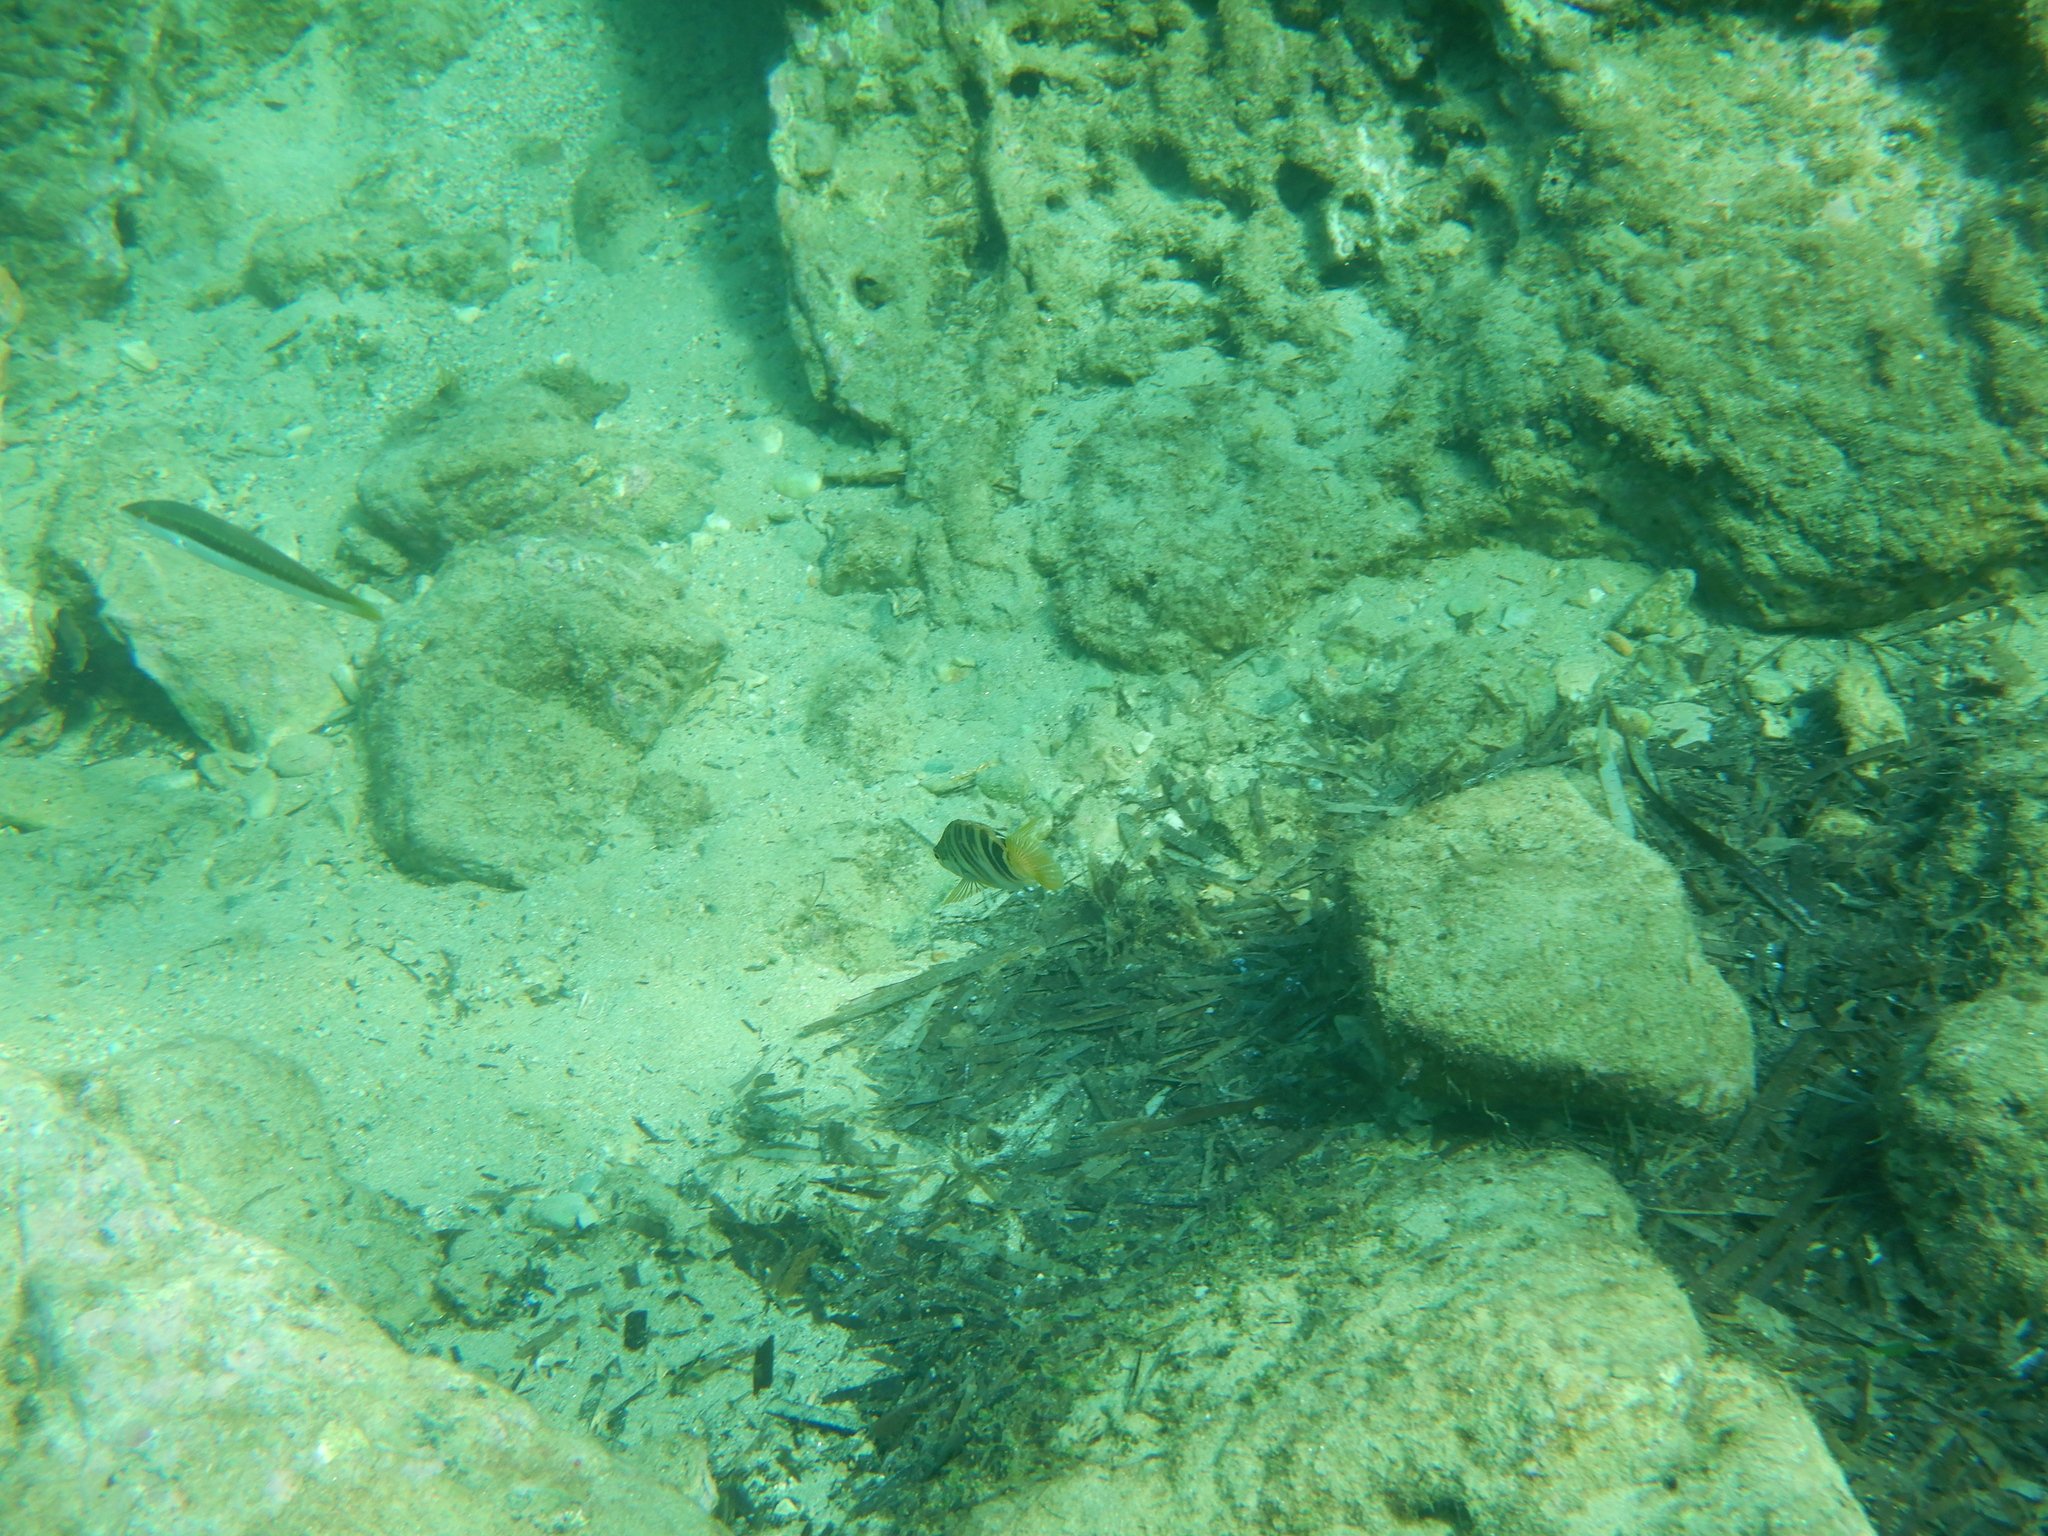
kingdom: Animalia
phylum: Chordata
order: Perciformes
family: Serranidae
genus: Serranus
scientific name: Serranus scriba
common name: Painted comber
